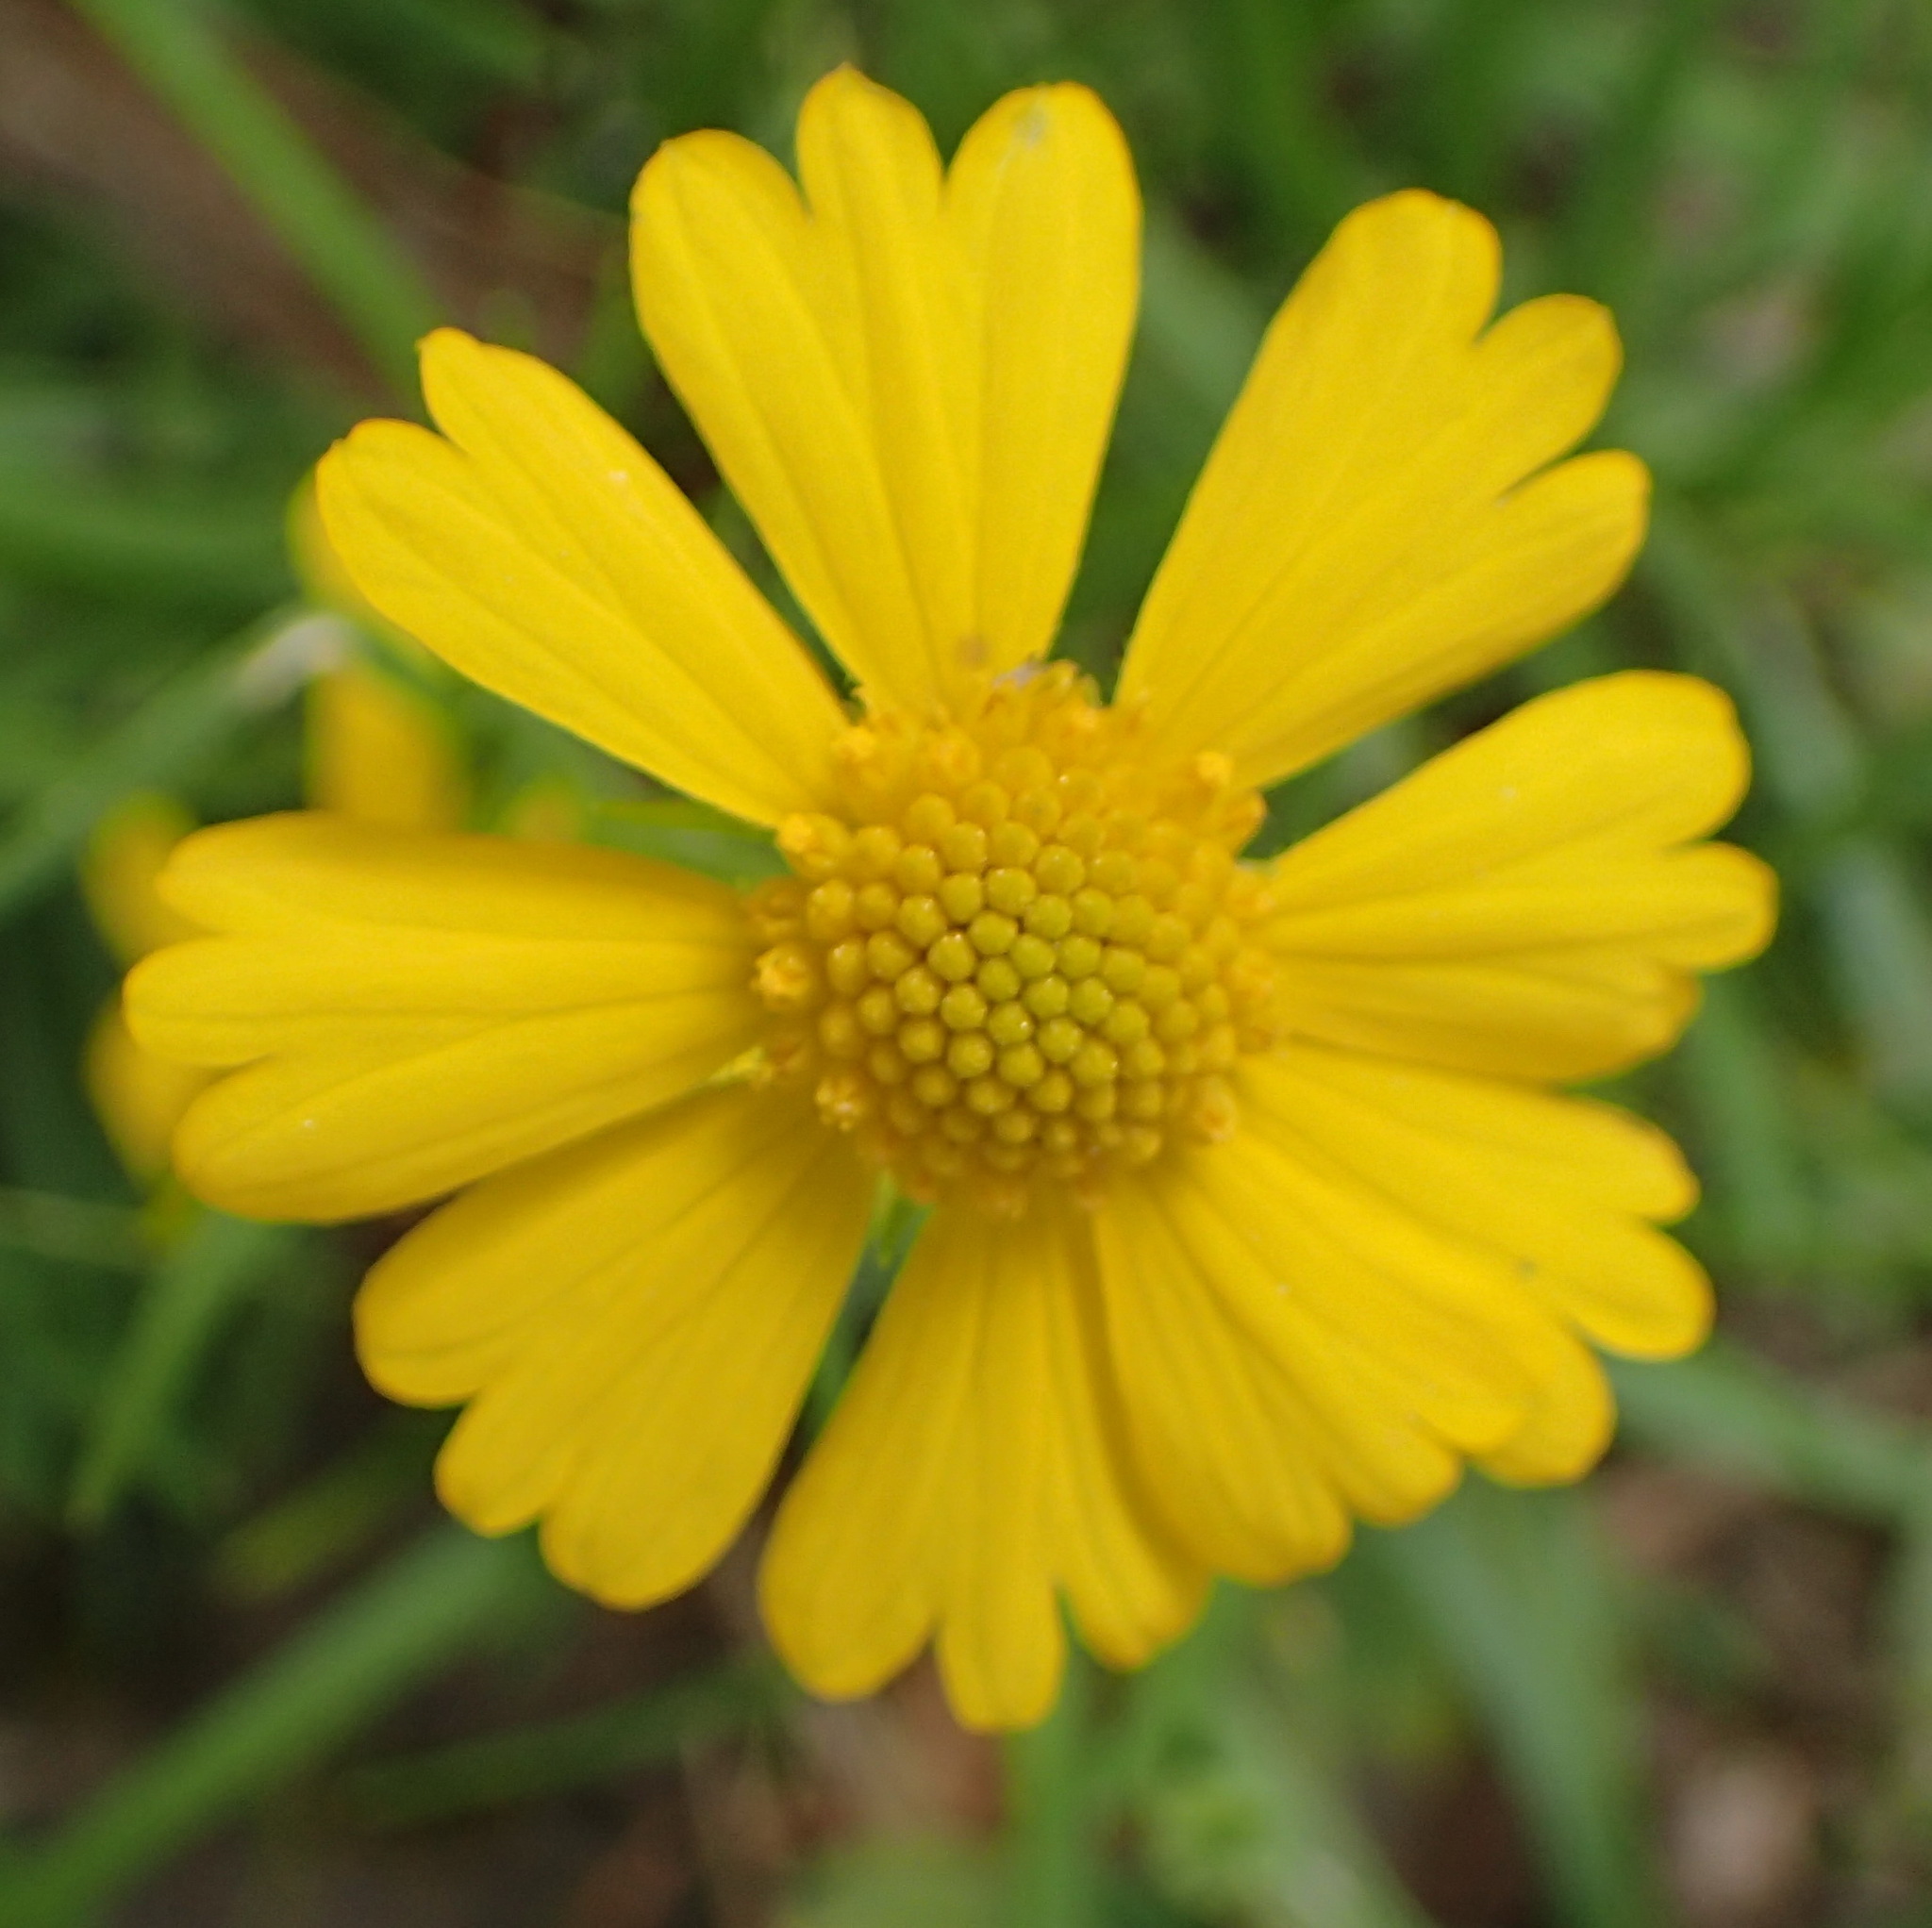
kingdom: Plantae
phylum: Tracheophyta
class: Magnoliopsida
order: Asterales
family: Asteraceae
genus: Helenium
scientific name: Helenium amarum
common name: Bitter sneezeweed
